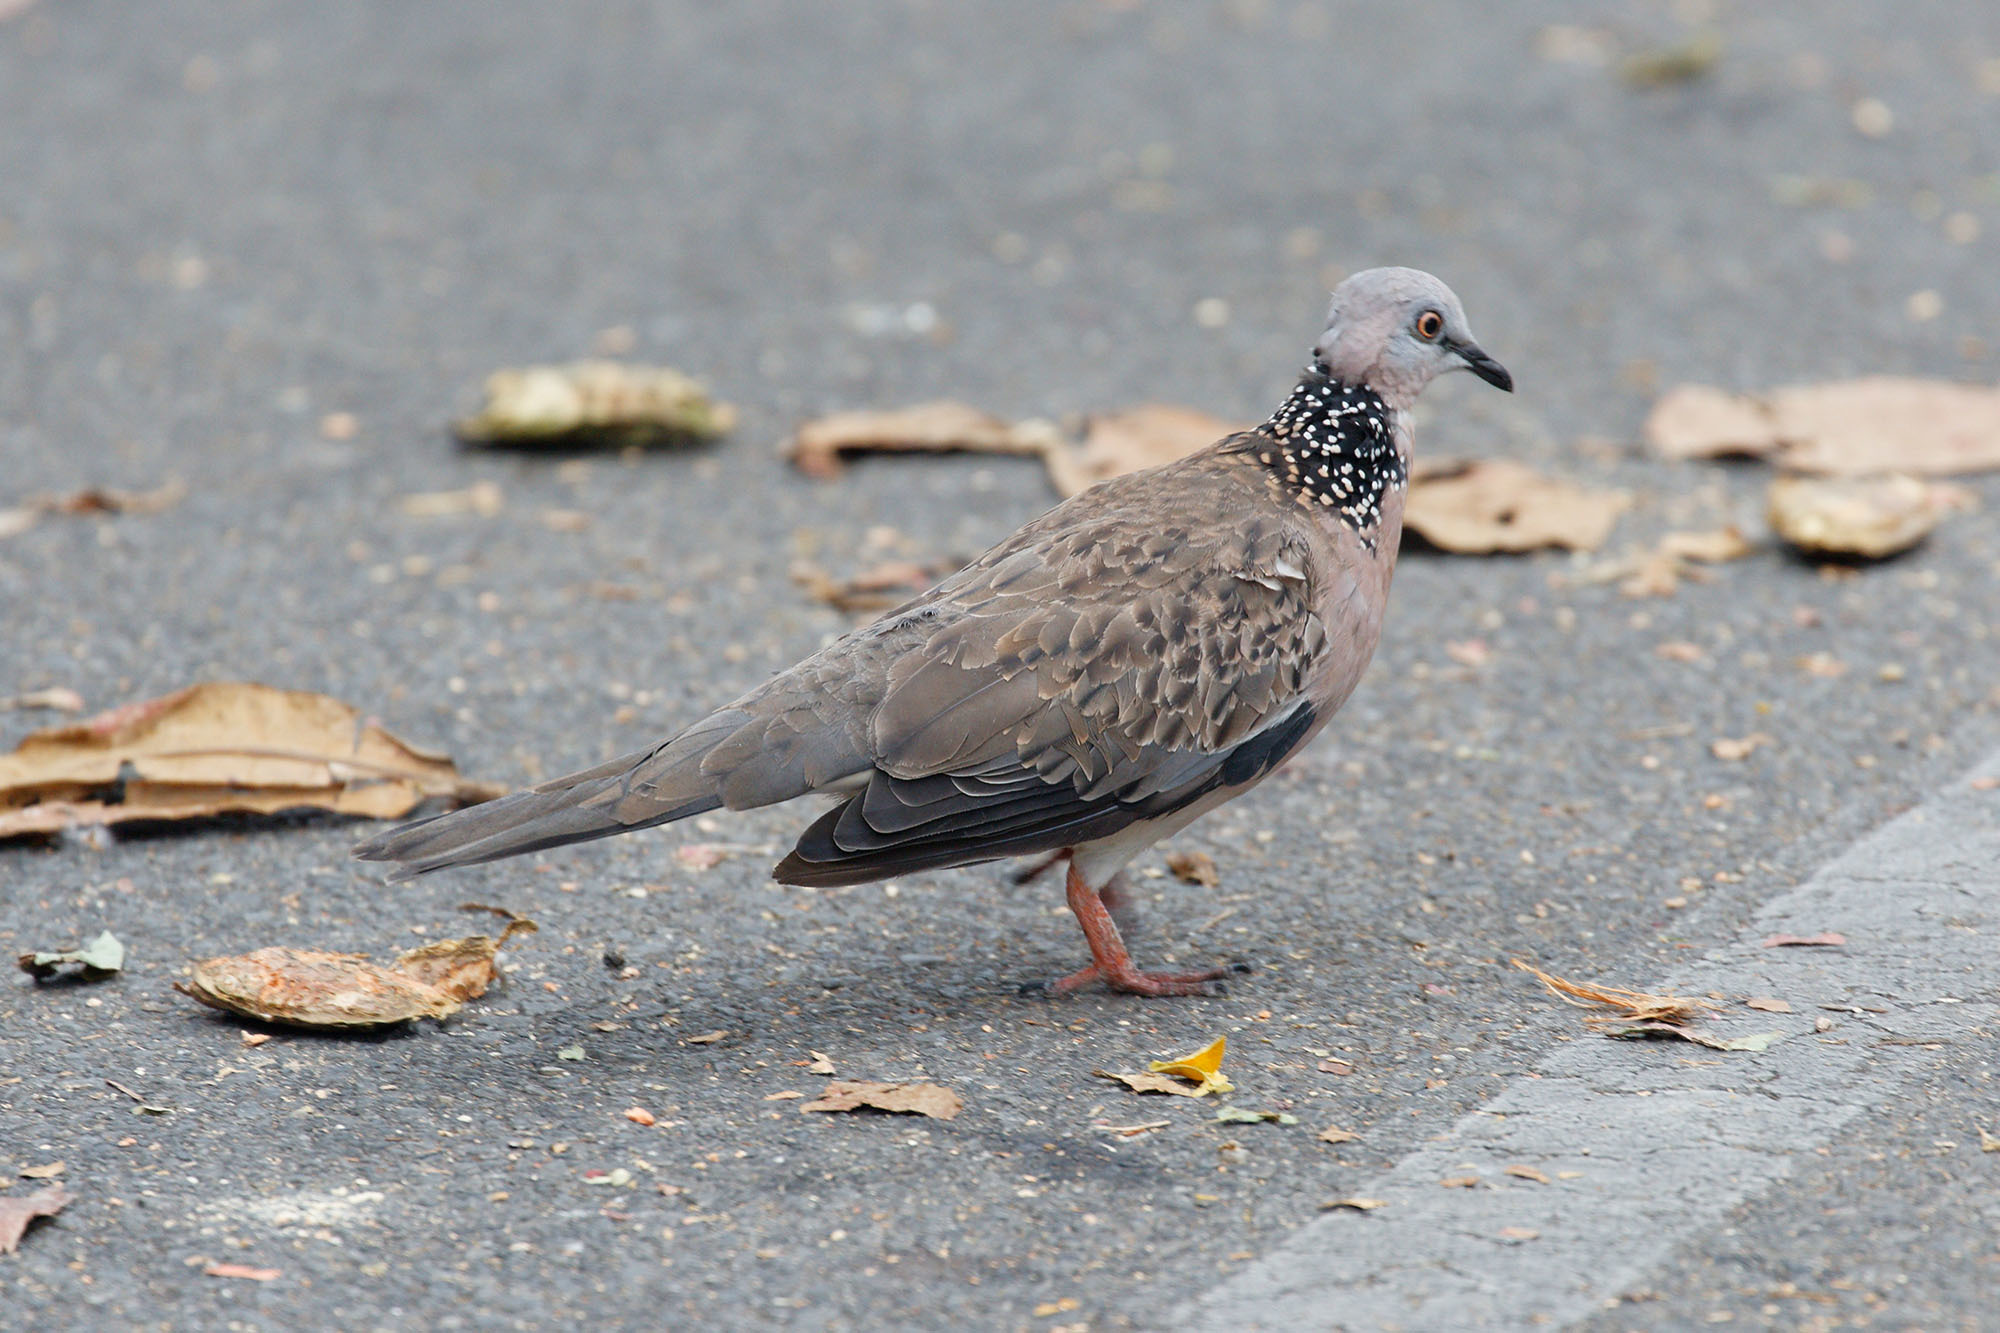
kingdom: Animalia
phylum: Chordata
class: Aves
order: Columbiformes
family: Columbidae
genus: Spilopelia
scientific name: Spilopelia chinensis
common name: Spotted dove
